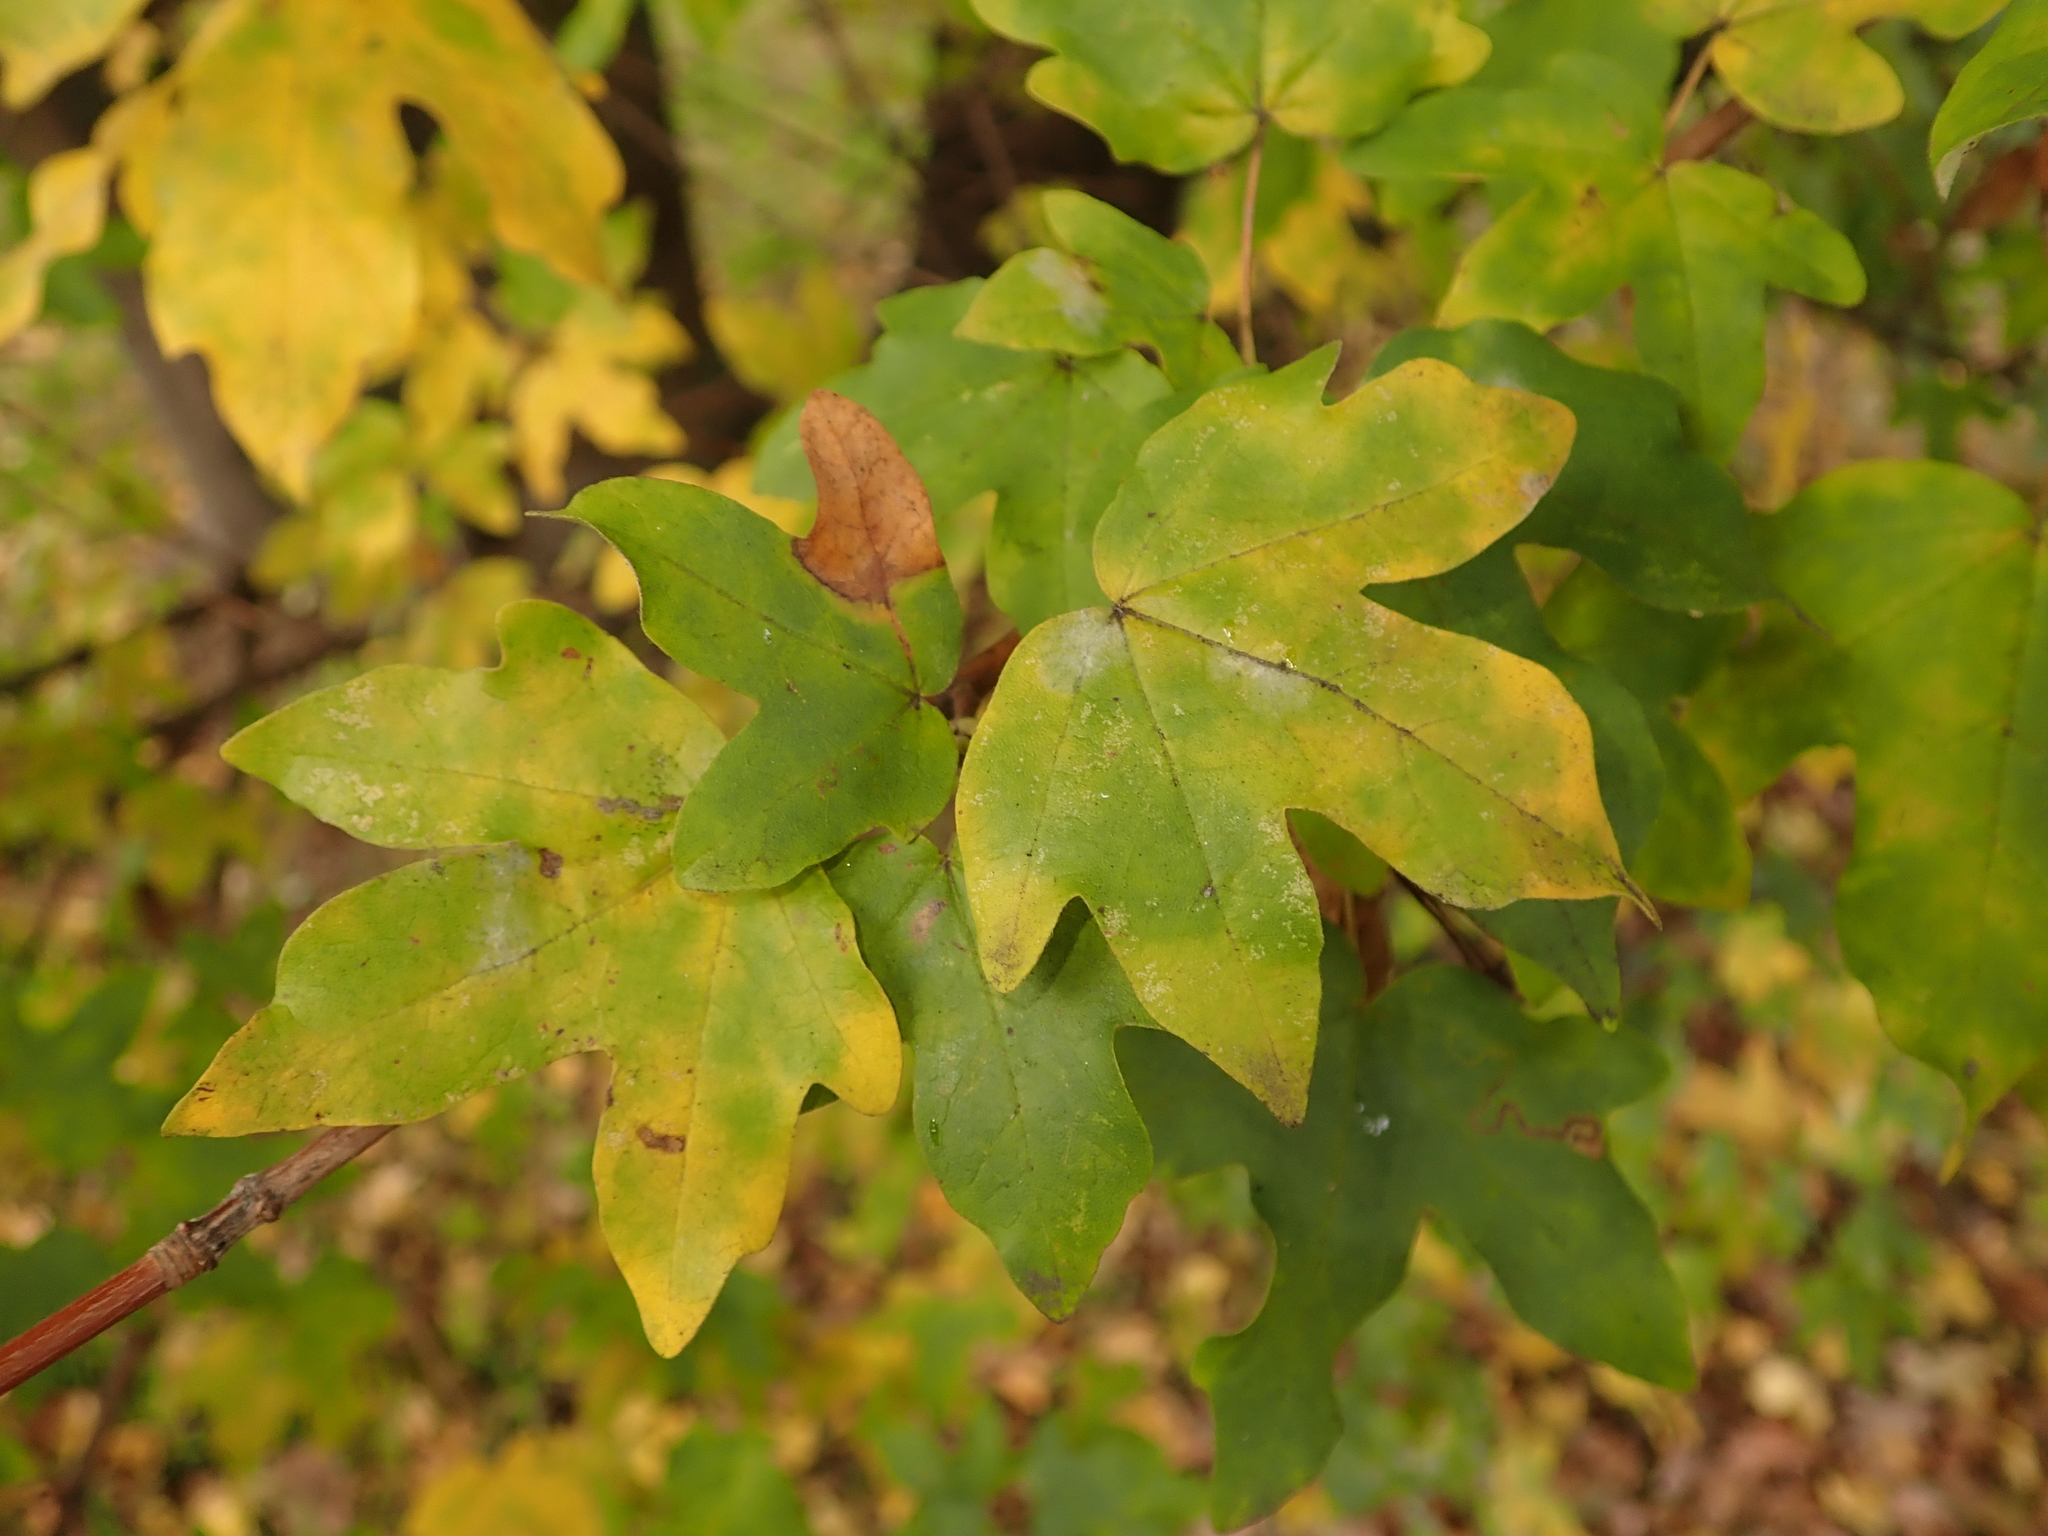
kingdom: Plantae
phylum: Tracheophyta
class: Magnoliopsida
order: Sapindales
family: Sapindaceae
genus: Acer
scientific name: Acer campestre
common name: Field maple
